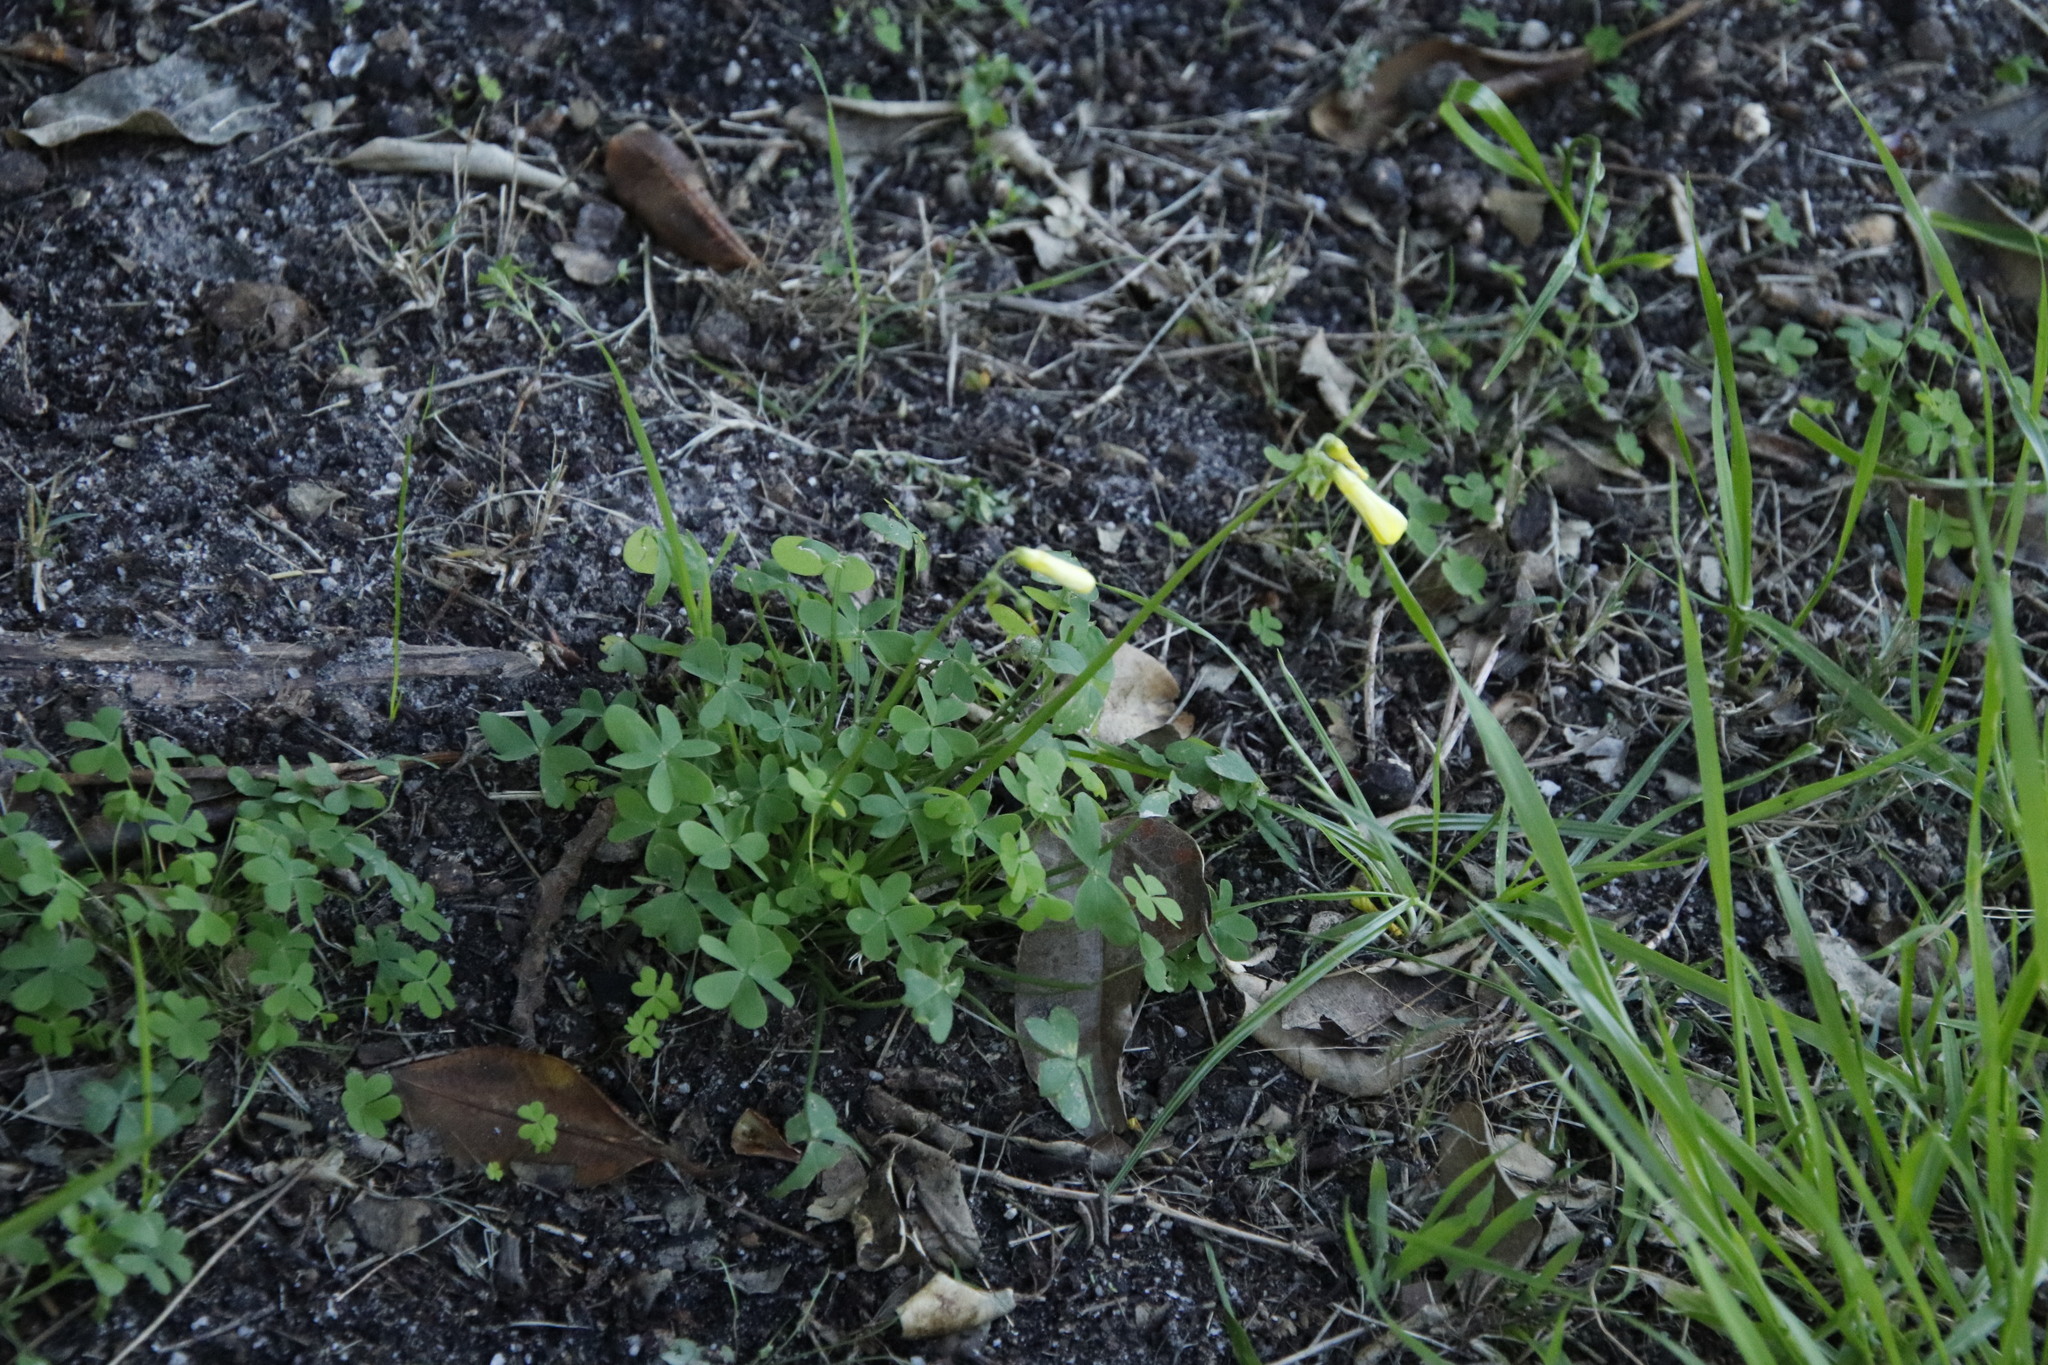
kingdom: Plantae
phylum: Tracheophyta
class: Magnoliopsida
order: Oxalidales
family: Oxalidaceae
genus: Oxalis
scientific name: Oxalis pes-caprae
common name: Bermuda-buttercup
